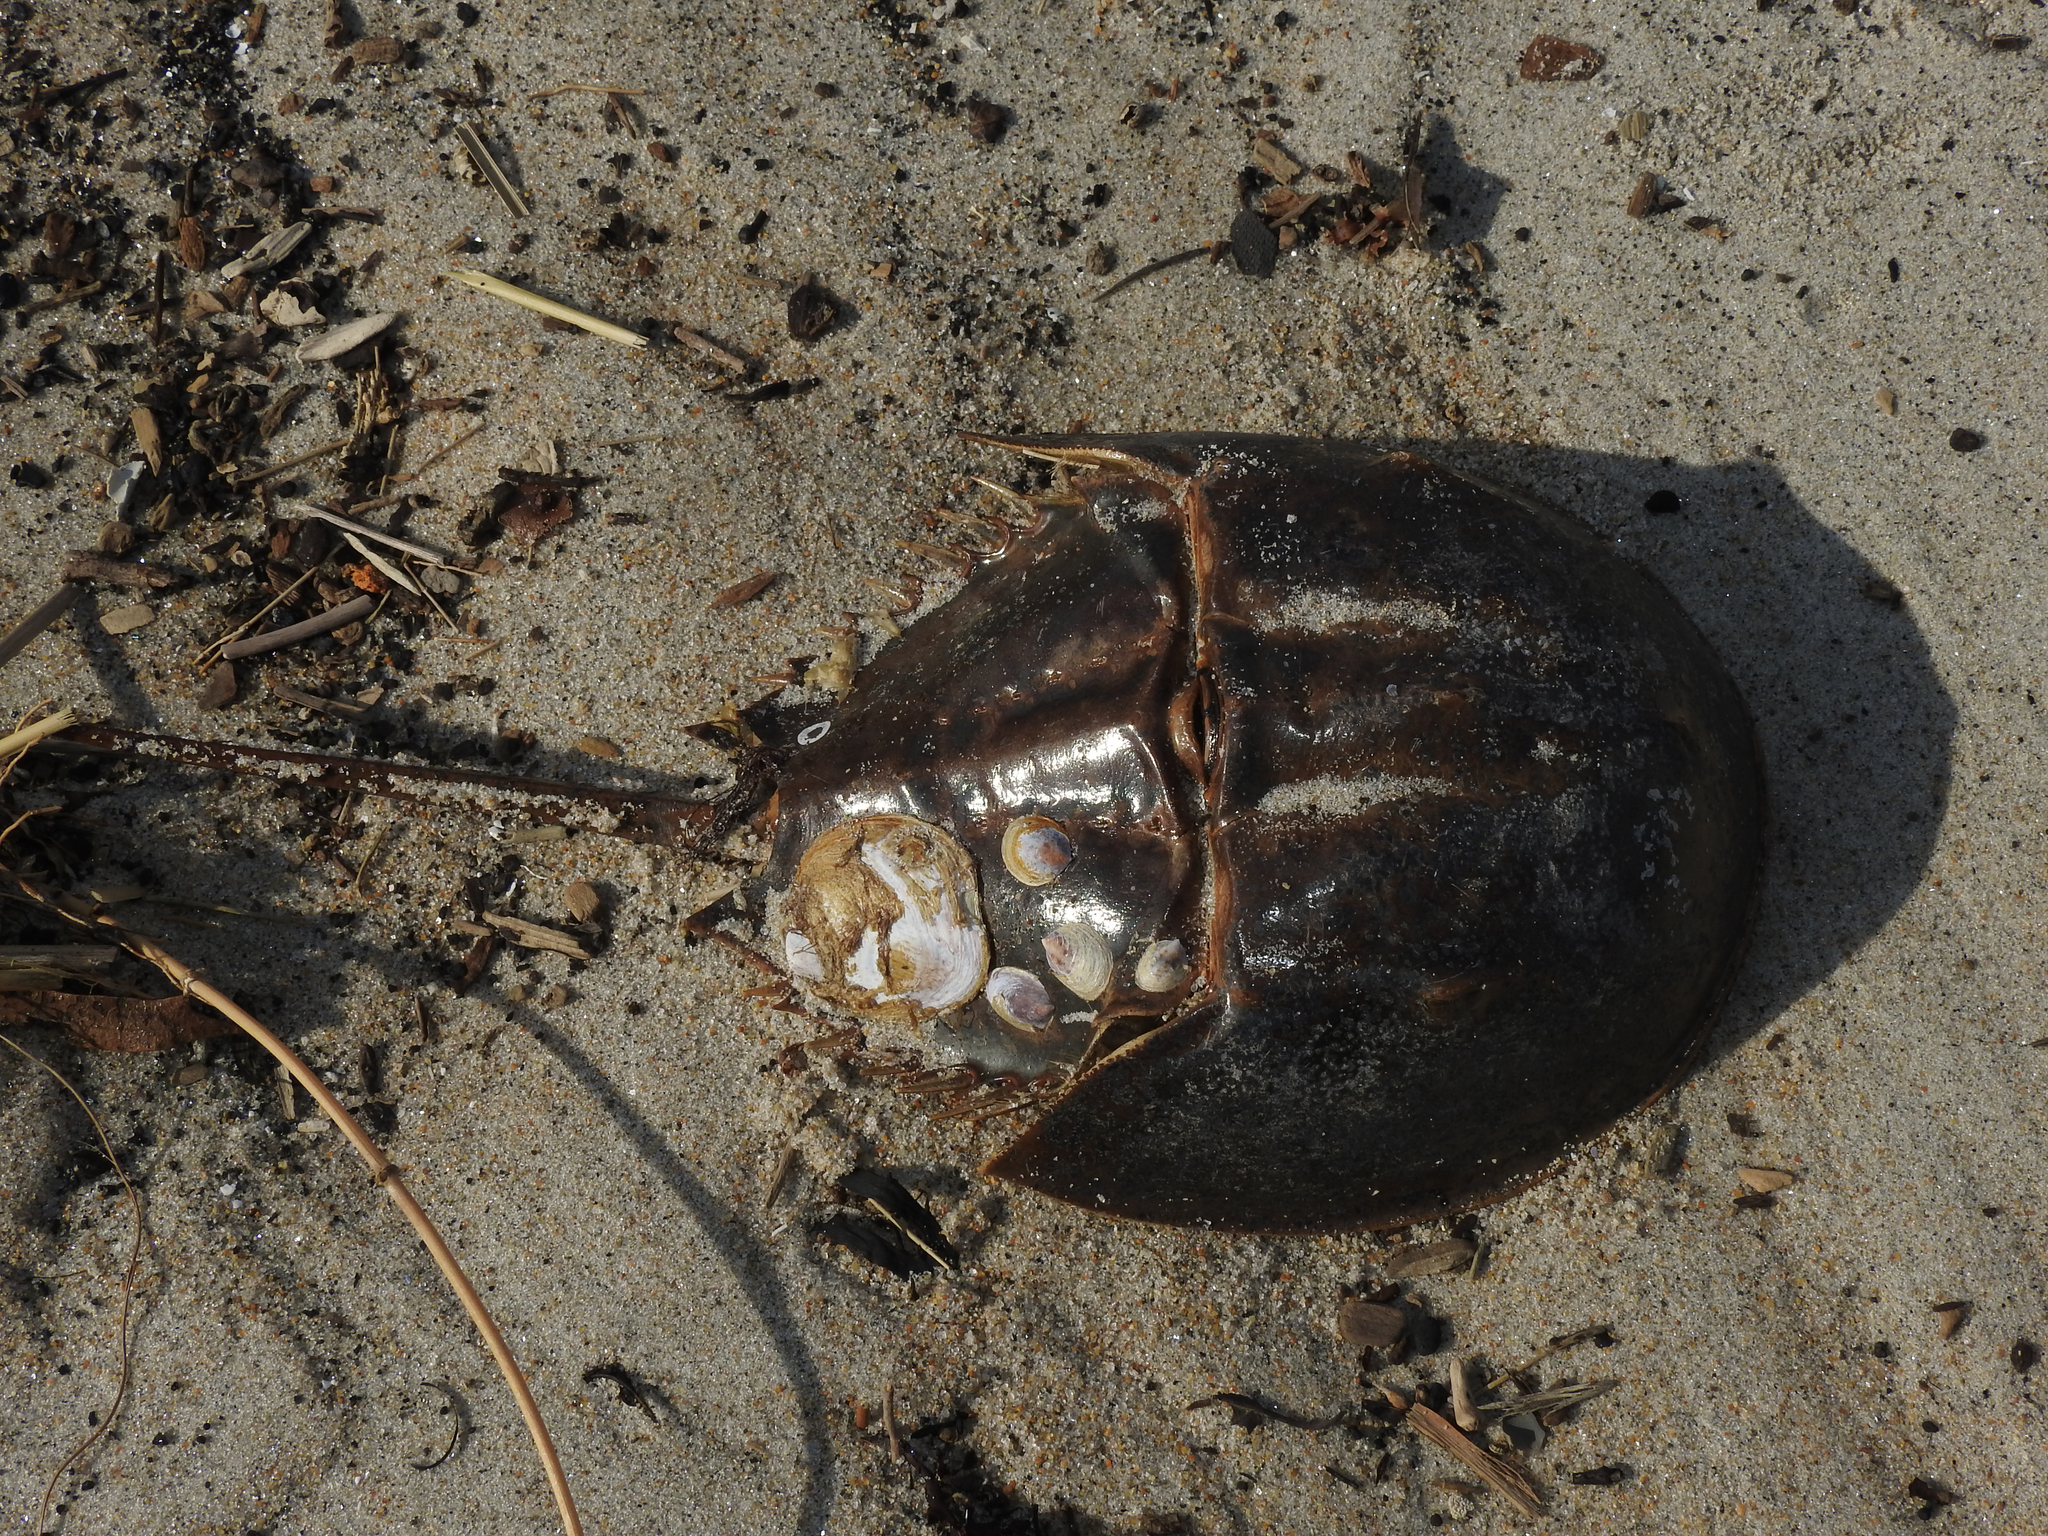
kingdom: Animalia
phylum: Arthropoda
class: Merostomata
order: Xiphosurida
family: Limulidae
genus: Limulus
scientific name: Limulus polyphemus
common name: Horseshoe crab
